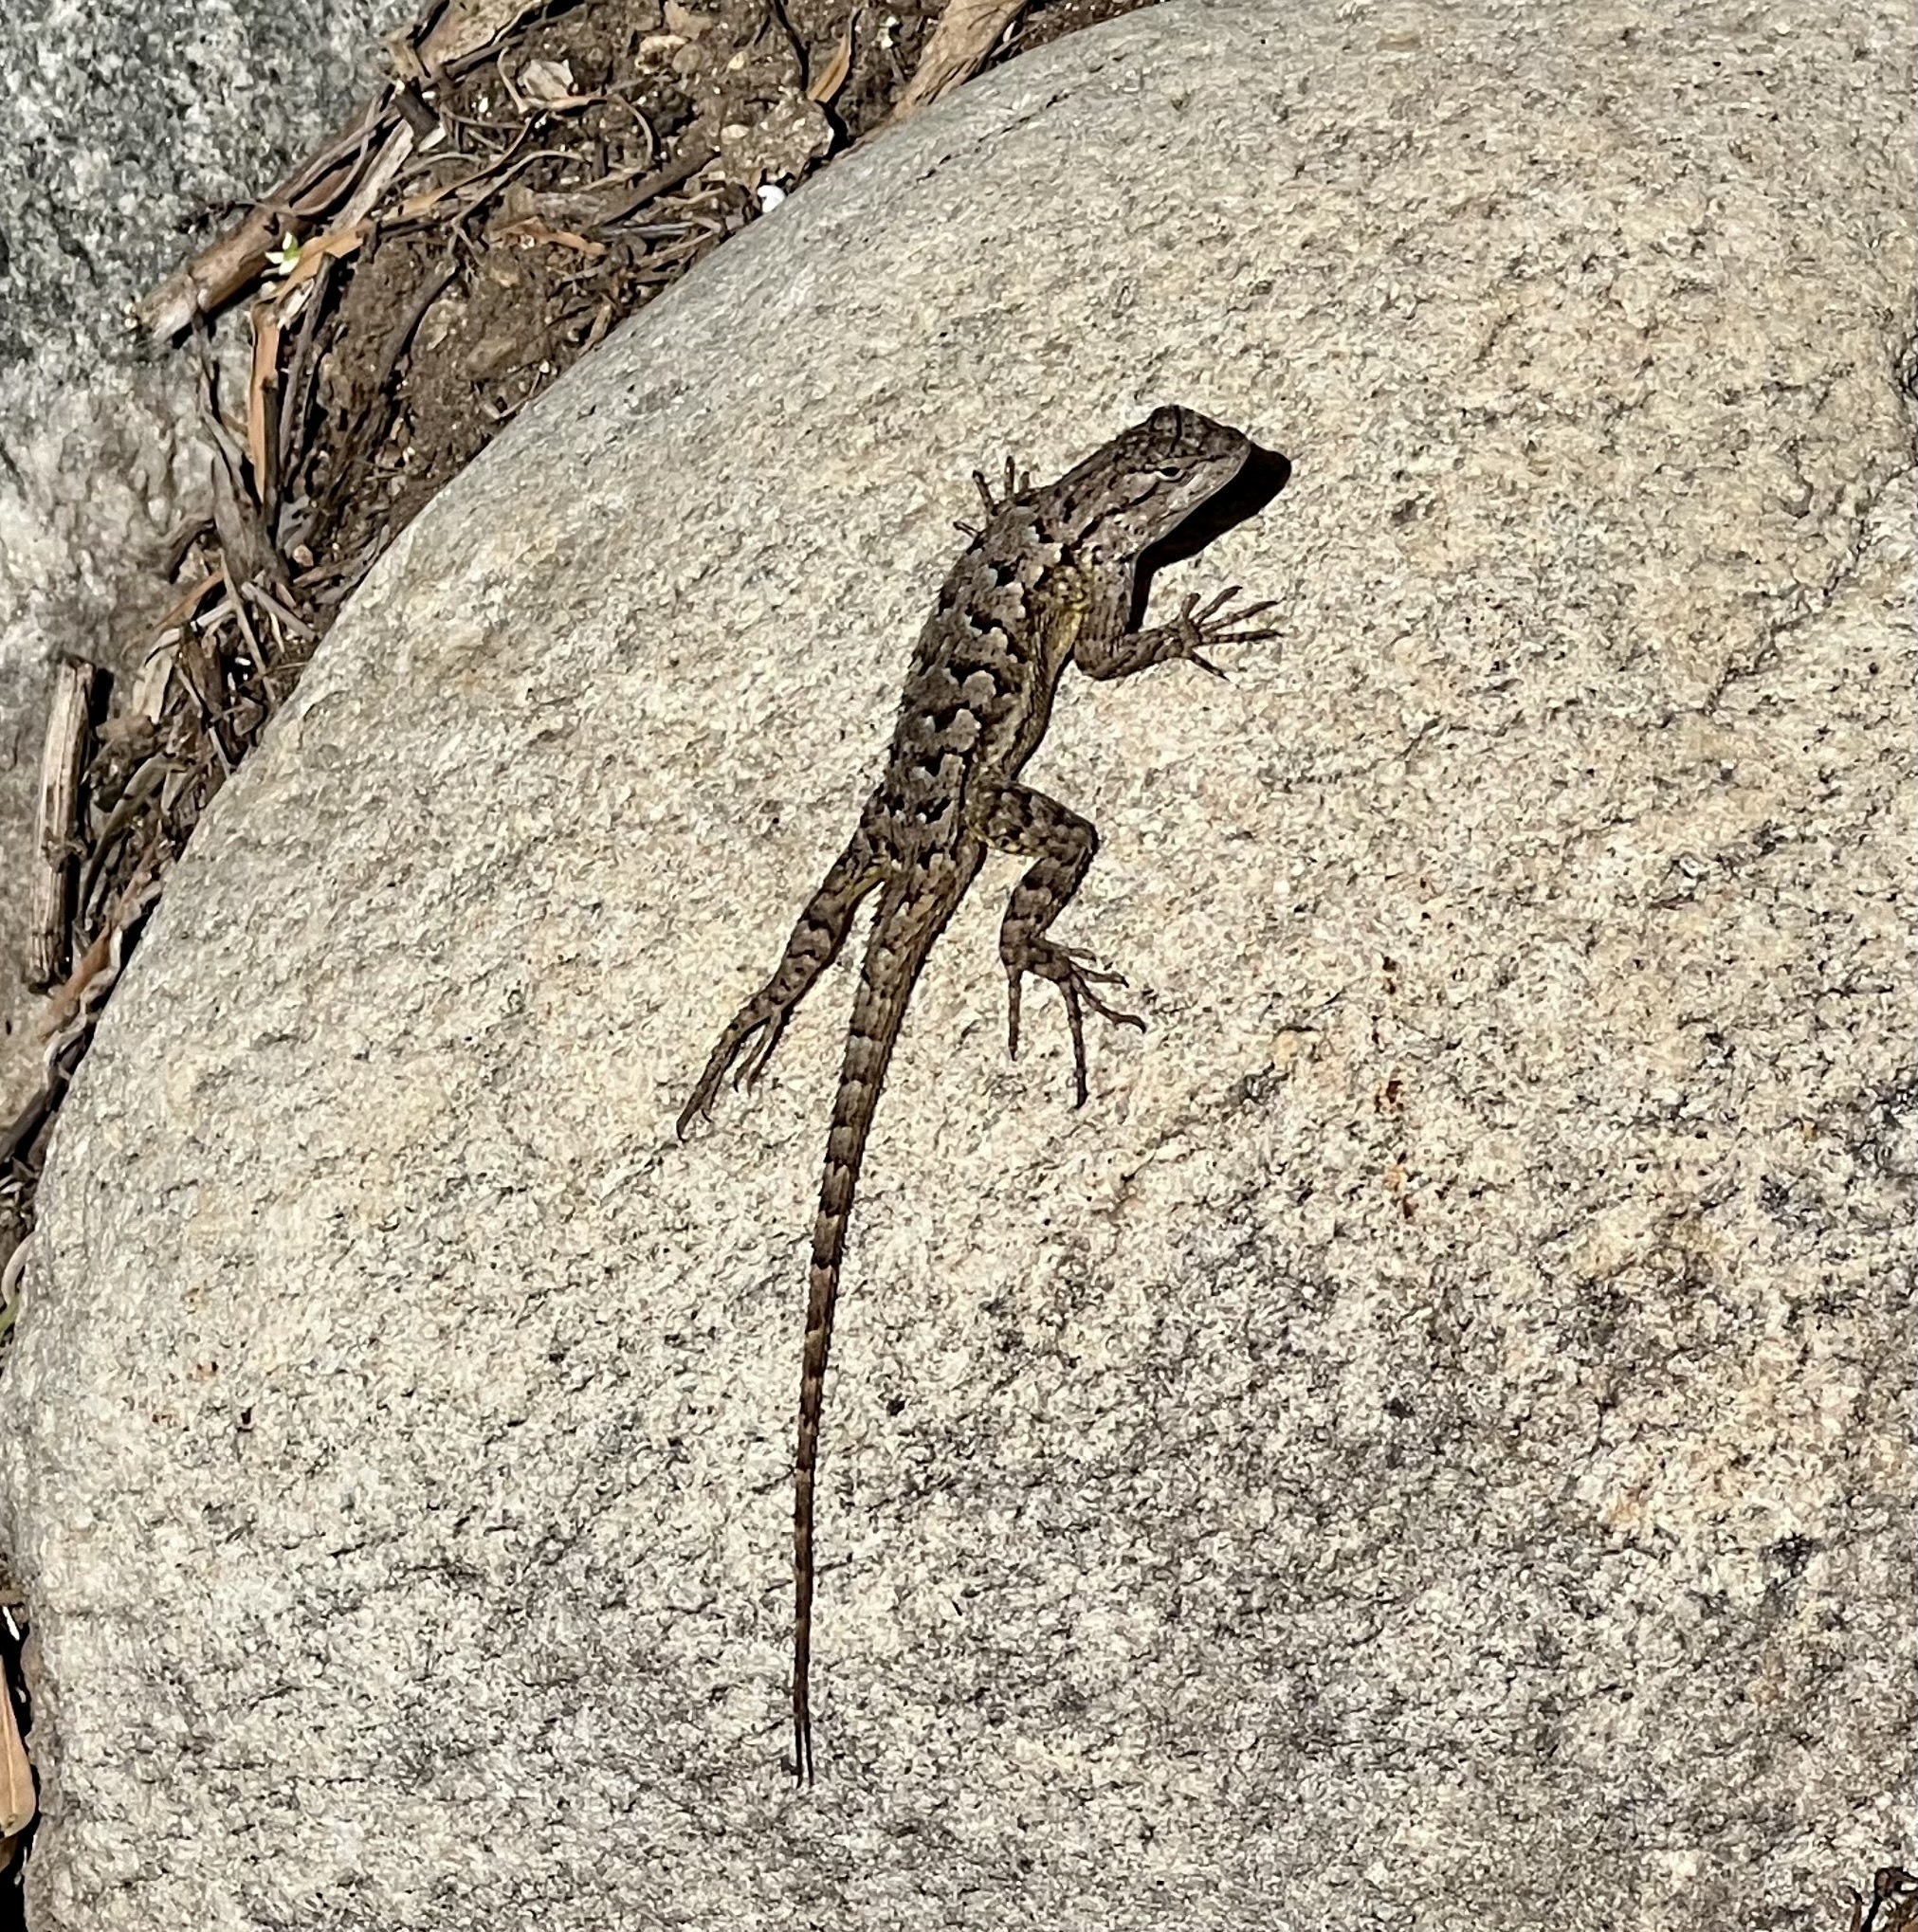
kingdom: Animalia
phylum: Chordata
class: Squamata
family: Phrynosomatidae
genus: Sceloporus
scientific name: Sceloporus occidentalis
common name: Western fence lizard
